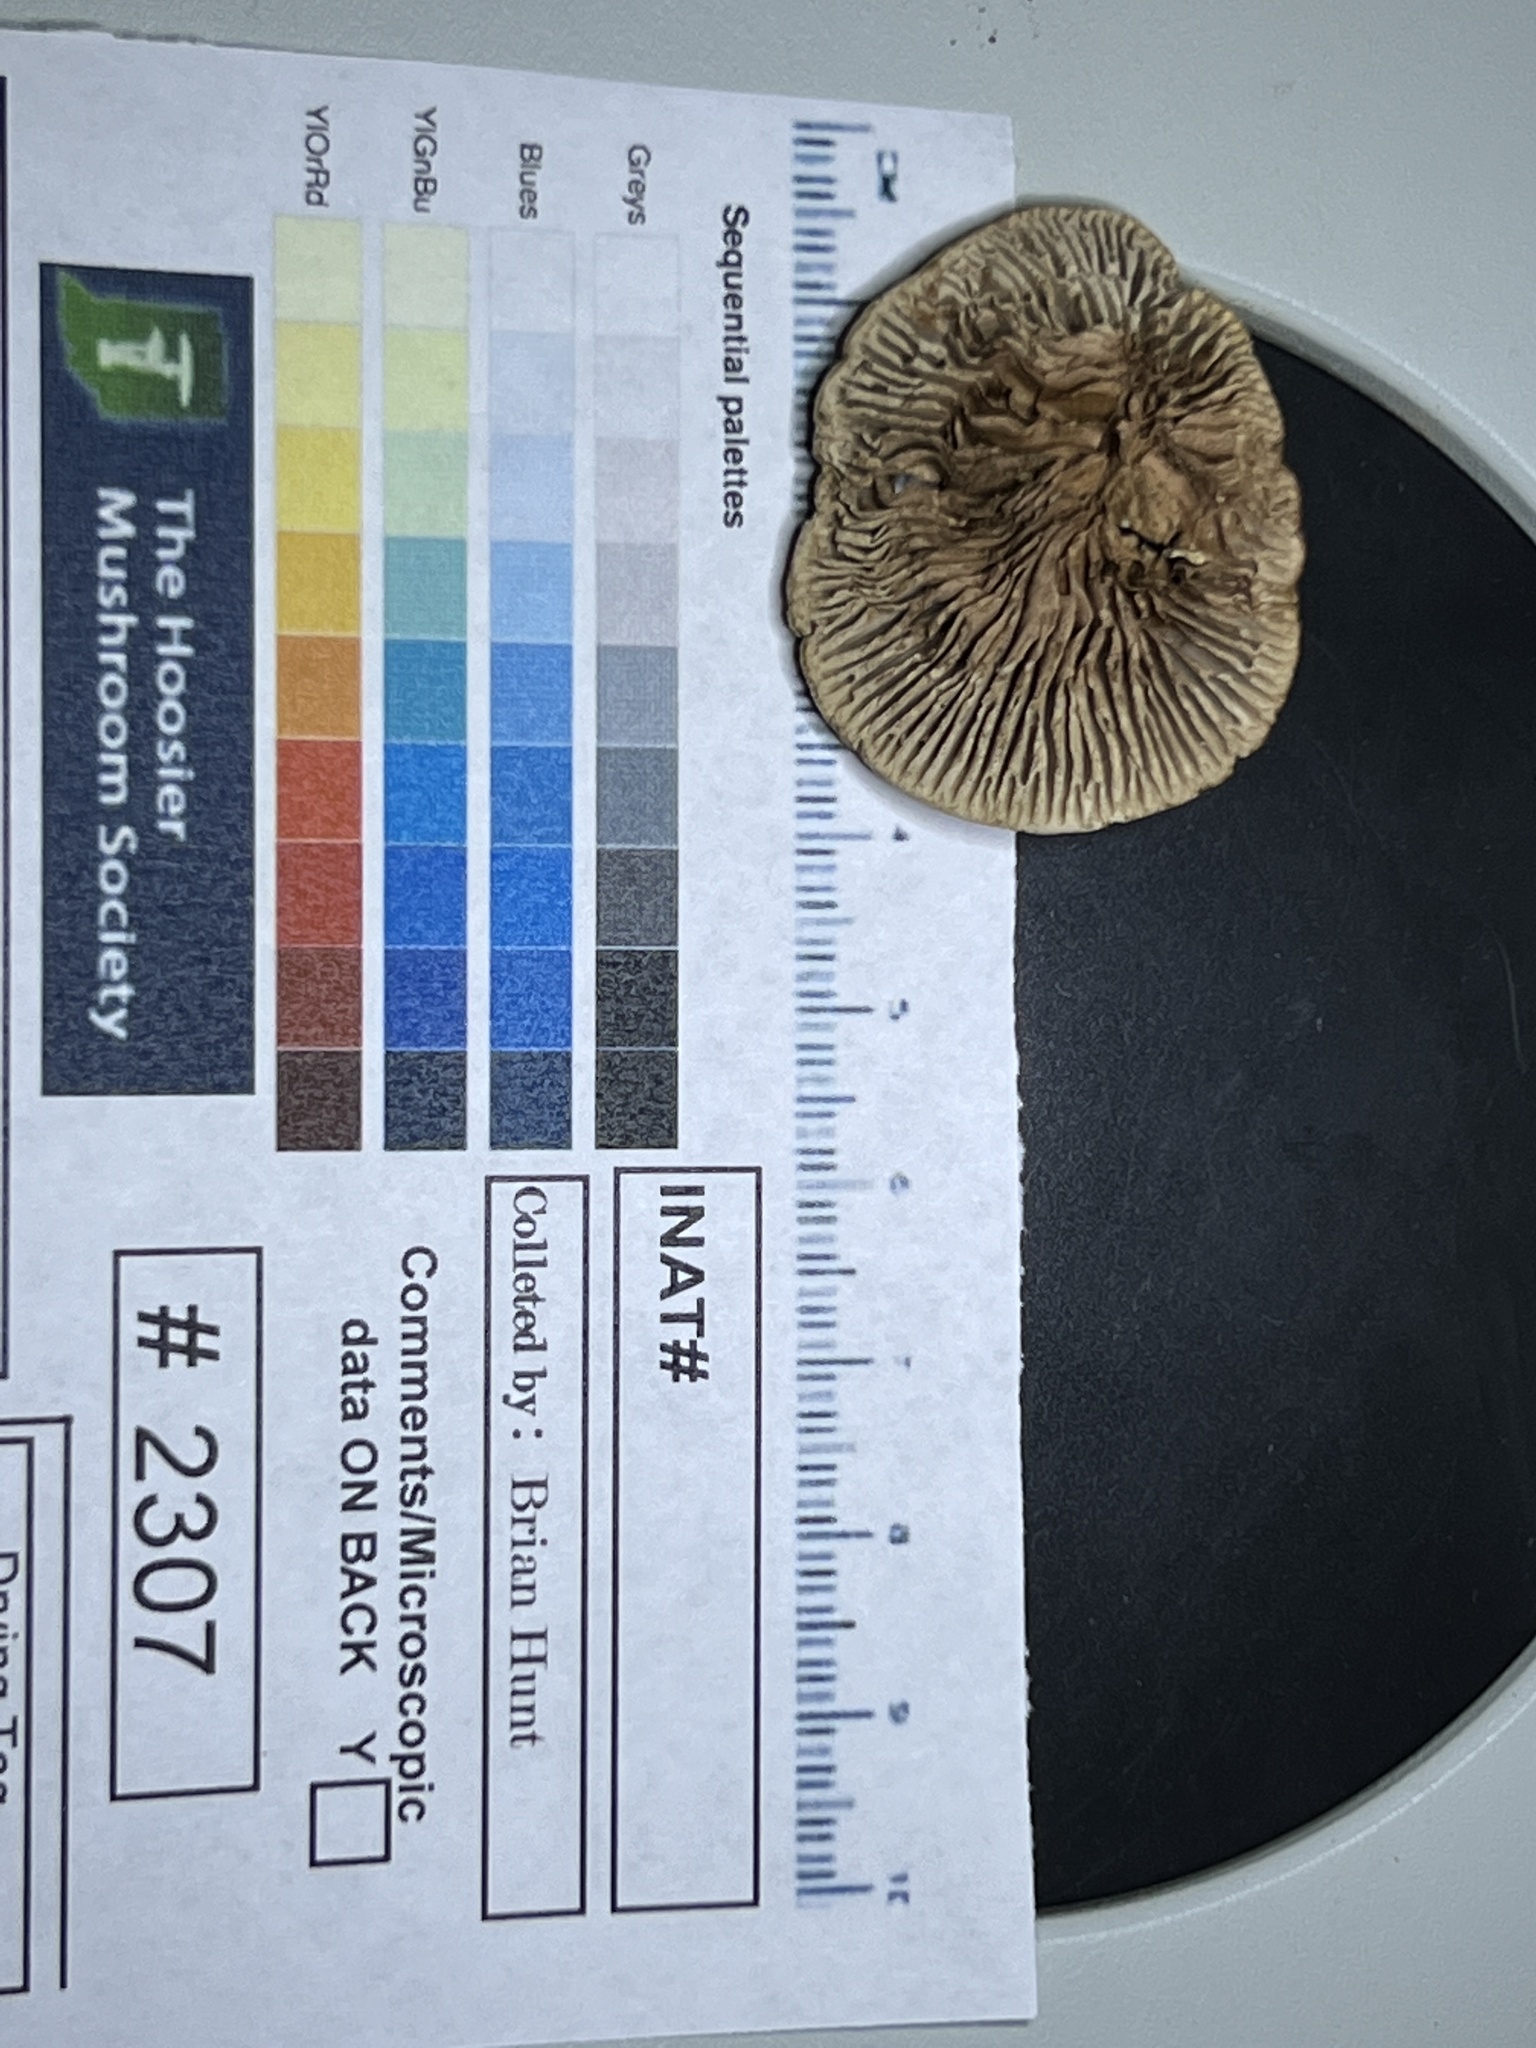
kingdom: Fungi
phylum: Basidiomycota
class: Agaricomycetes
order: Polyporales
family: Polyporaceae
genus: Daedaleopsis
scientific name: Daedaleopsis confragosa
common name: Blushing bracket
